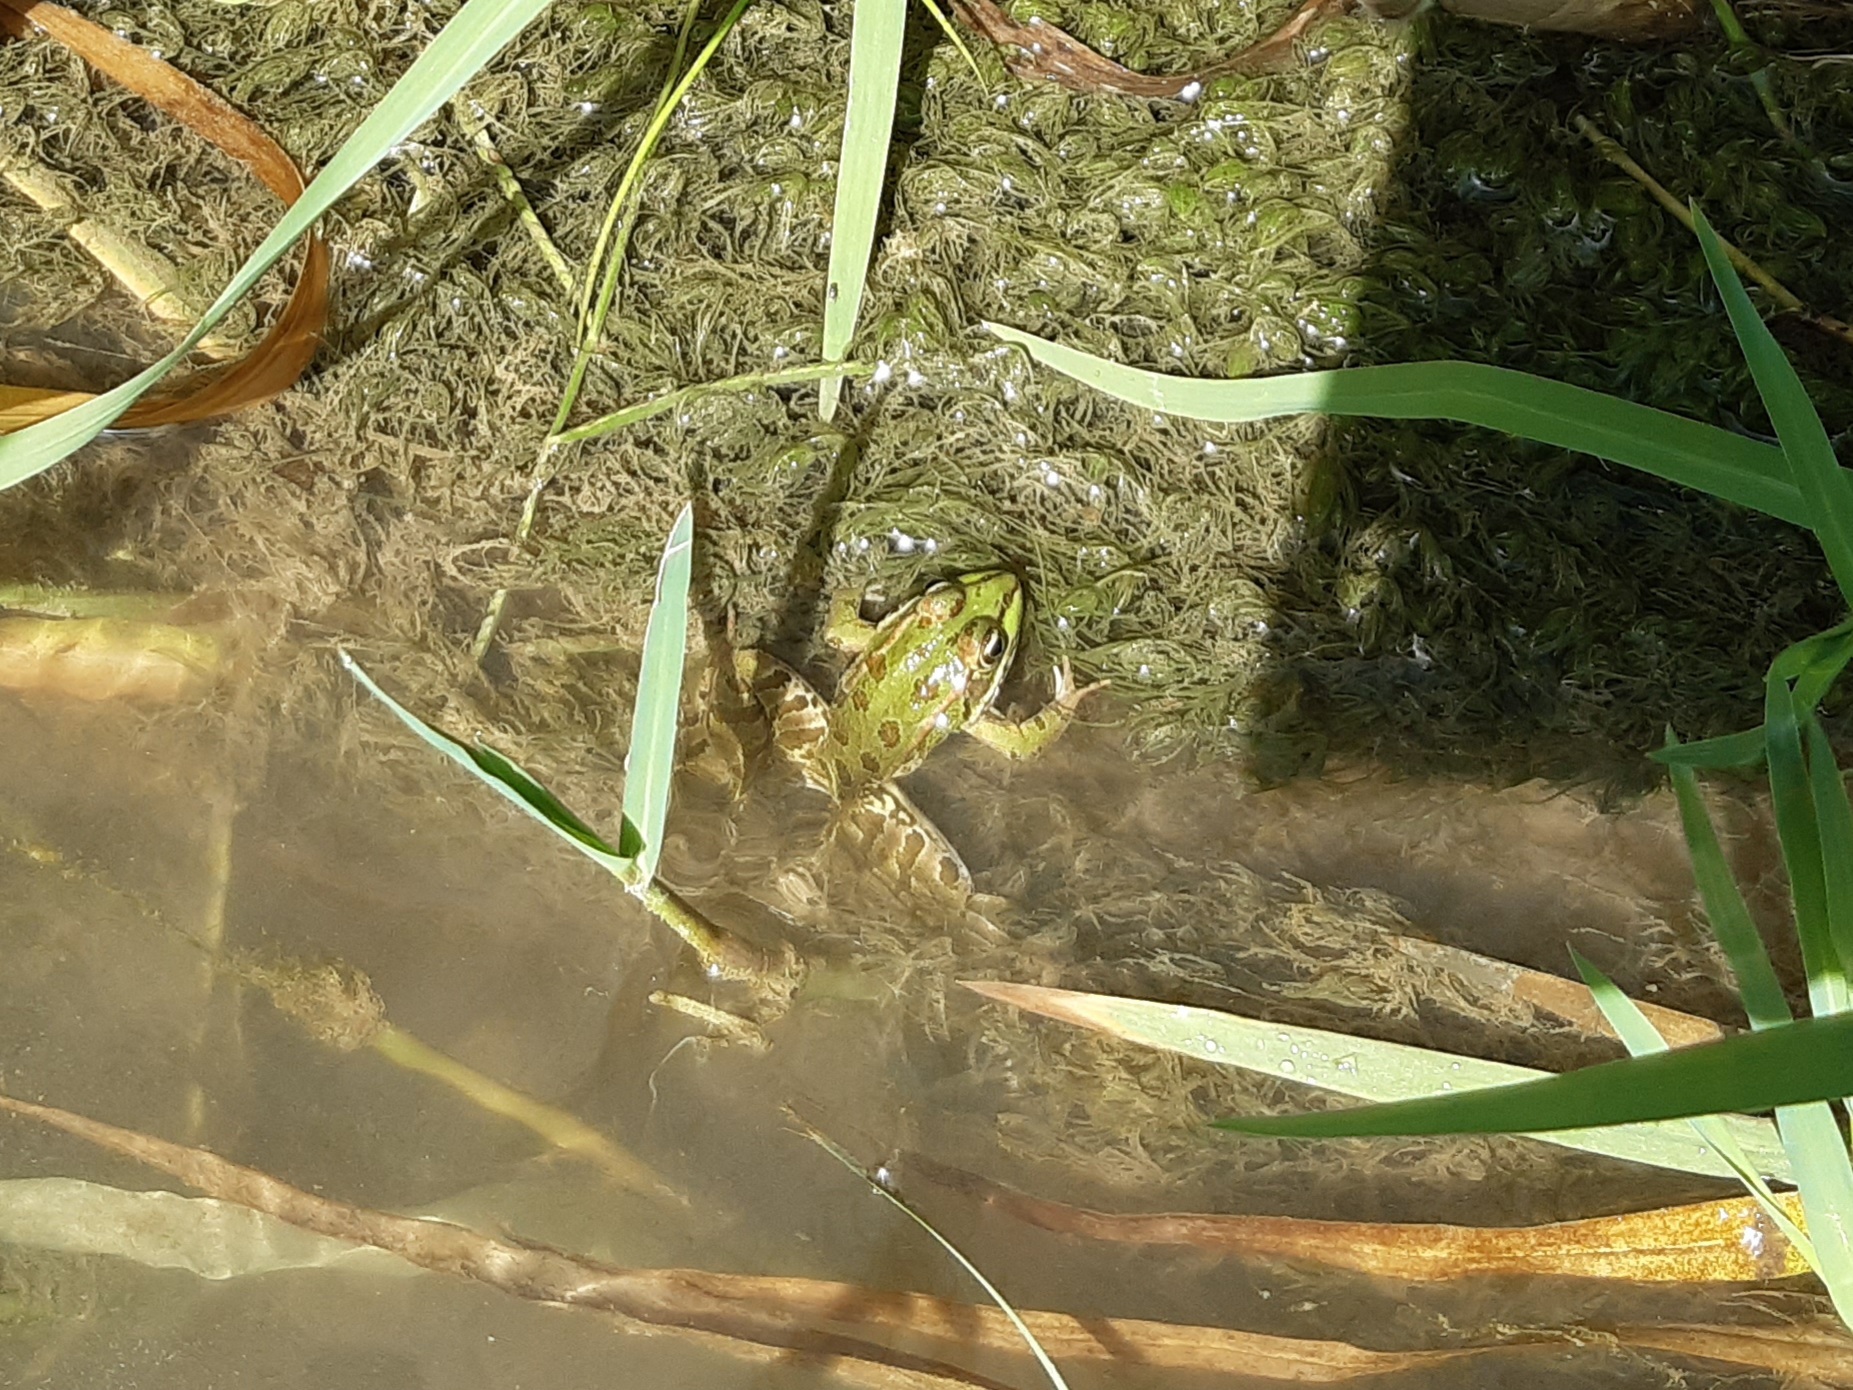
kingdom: Animalia
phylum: Chordata
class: Amphibia
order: Anura
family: Ranidae
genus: Pelophylax
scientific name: Pelophylax ridibundus
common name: Marsh frog
